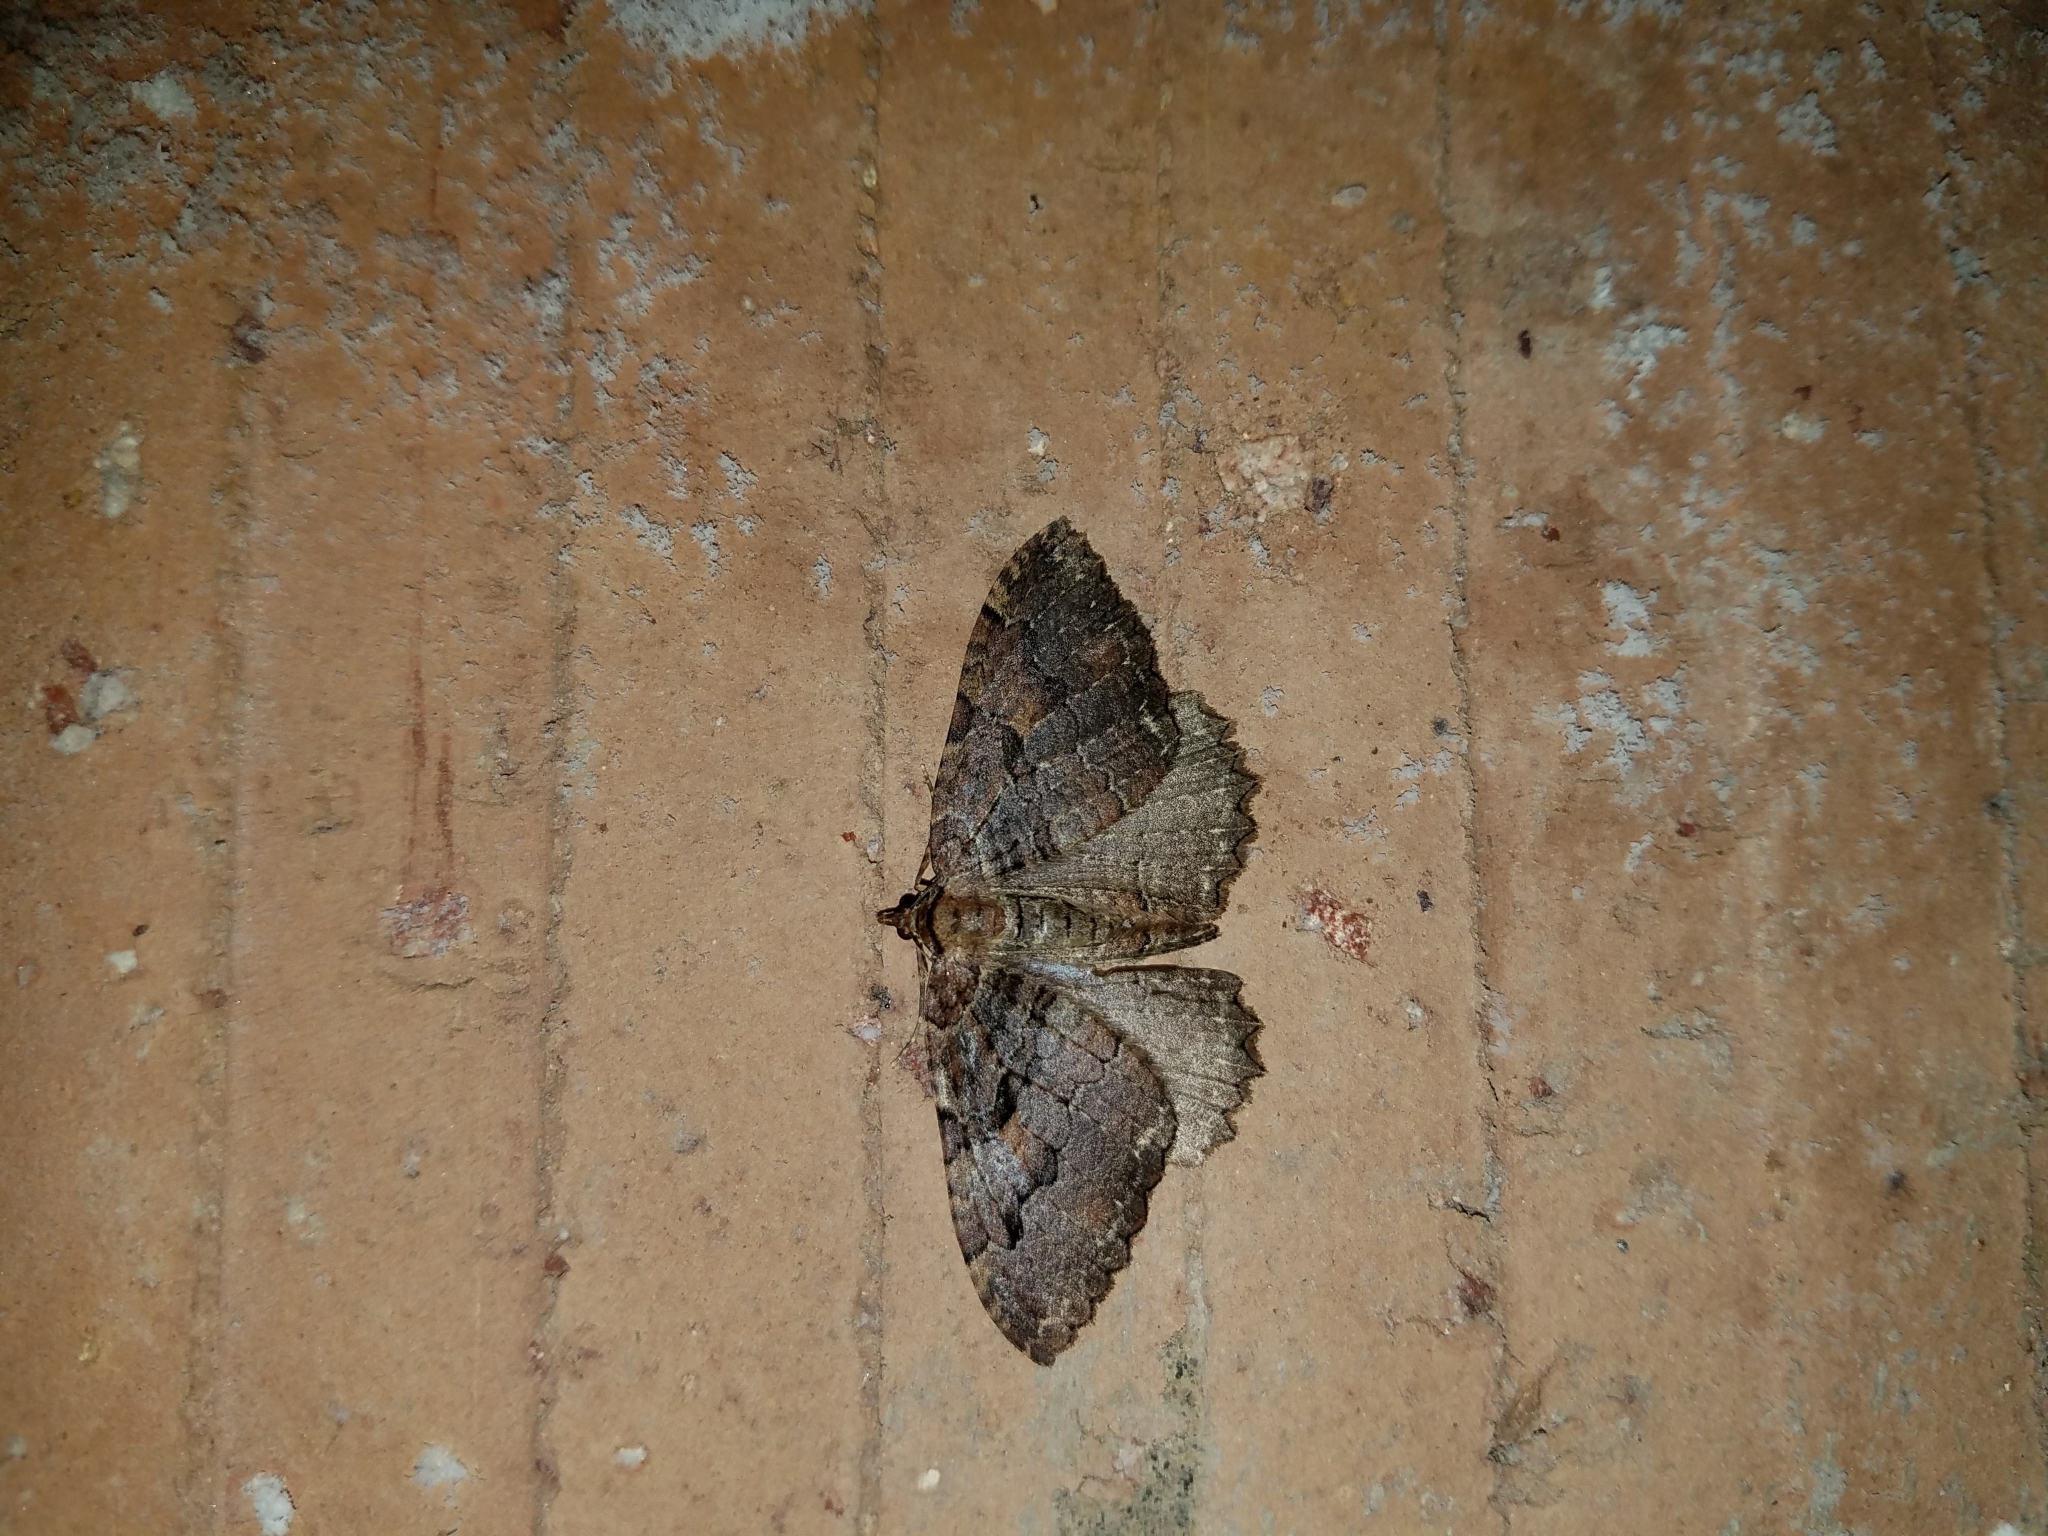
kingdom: Animalia
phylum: Arthropoda
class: Insecta
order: Lepidoptera
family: Geometridae
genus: Triphosa
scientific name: Triphosa haesitata
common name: Tissue moth
